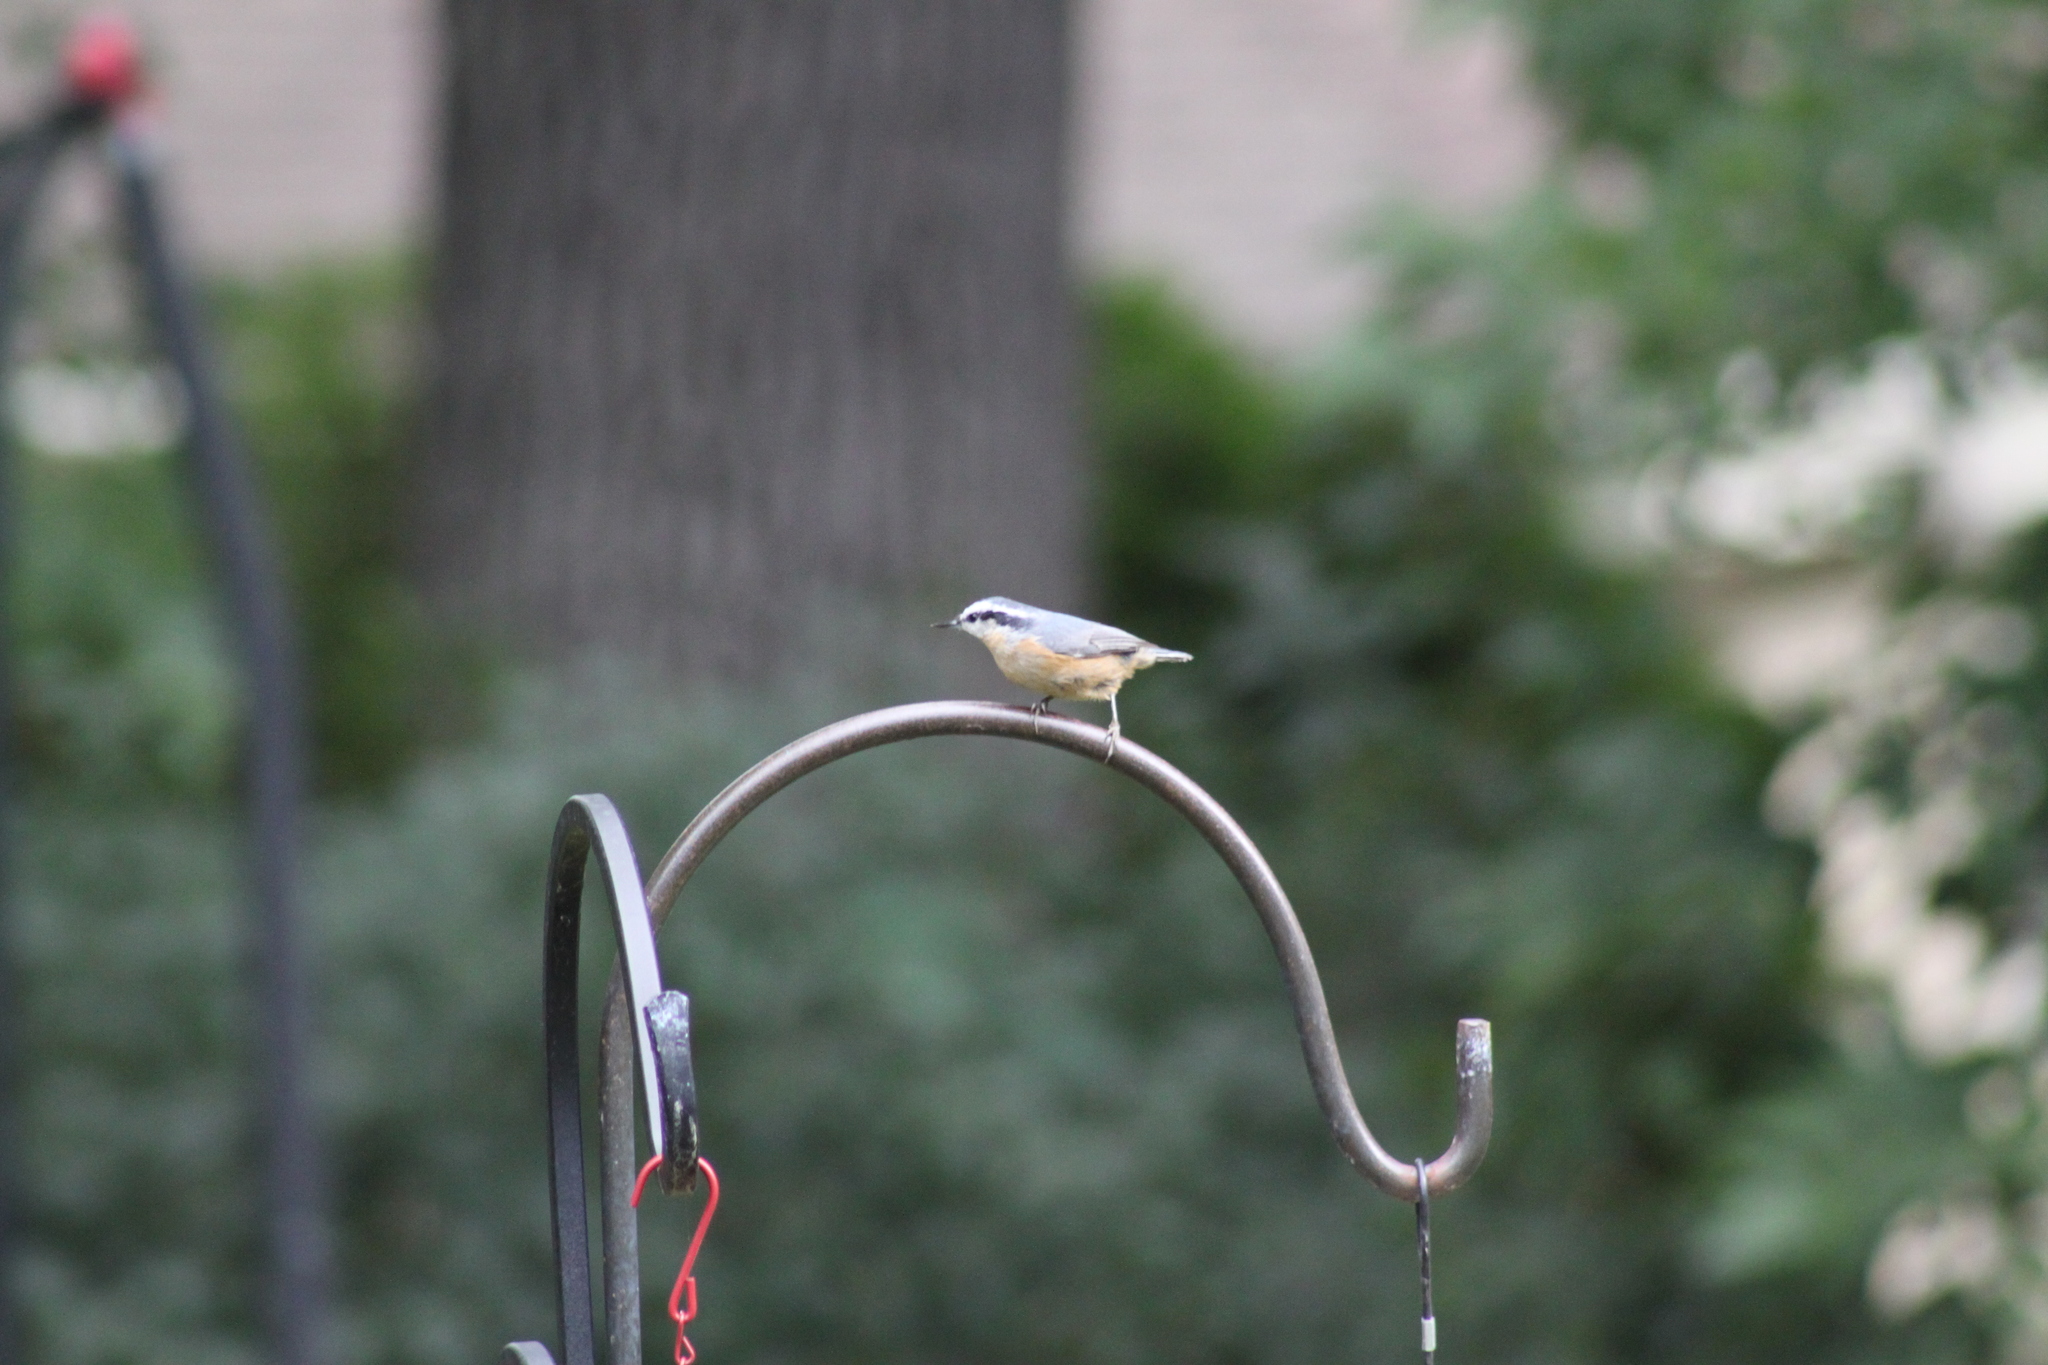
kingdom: Animalia
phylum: Chordata
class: Aves
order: Passeriformes
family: Sittidae
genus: Sitta
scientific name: Sitta canadensis
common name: Red-breasted nuthatch
